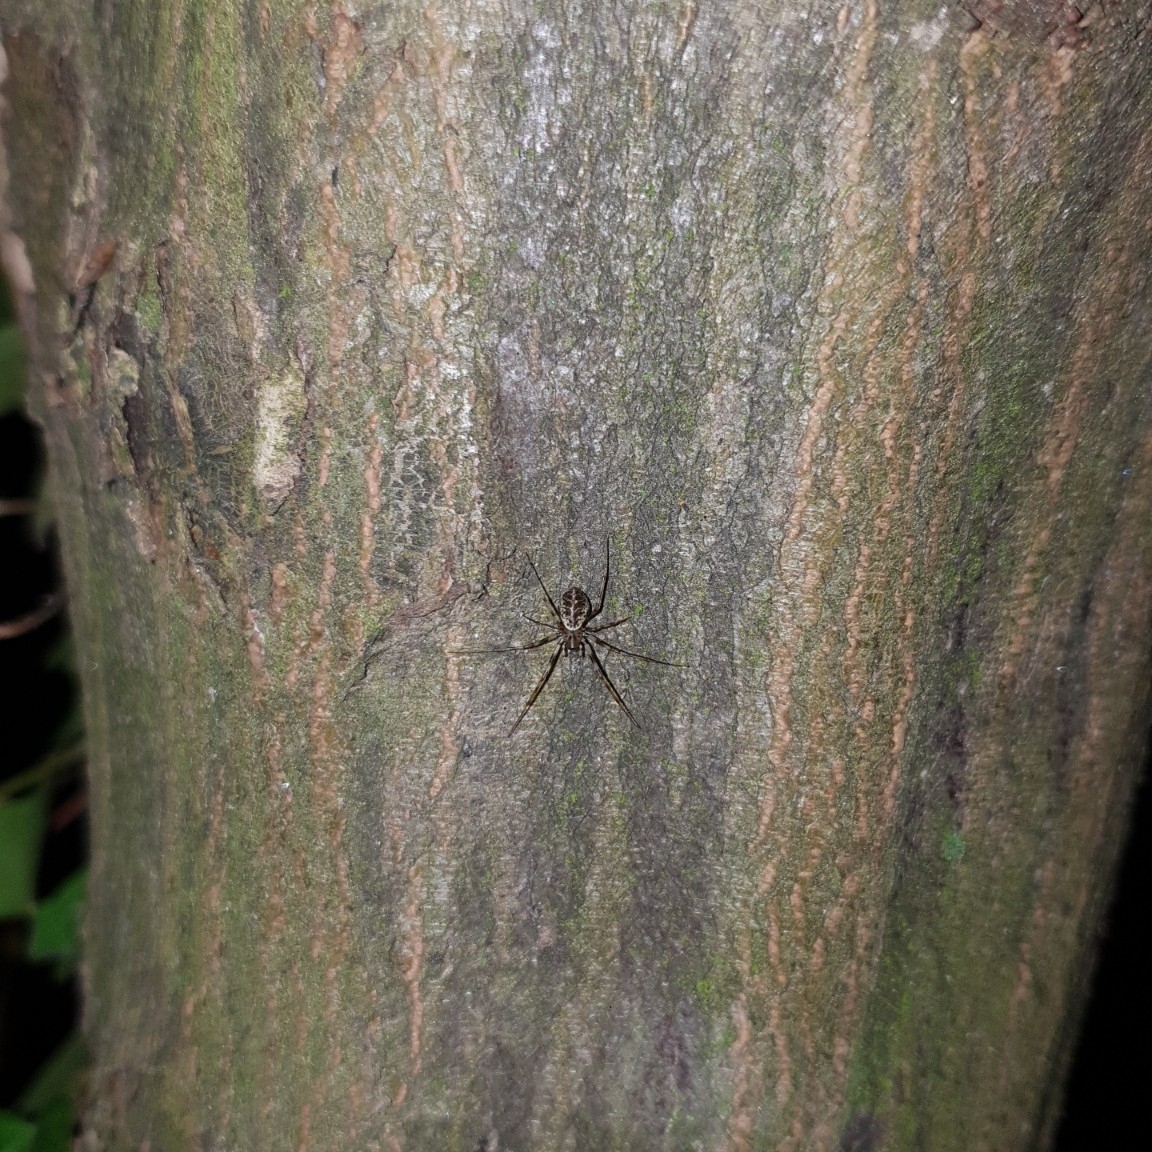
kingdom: Animalia
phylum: Arthropoda
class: Arachnida
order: Araneae
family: Linyphiidae
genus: Drapetisca
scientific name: Drapetisca socialis
